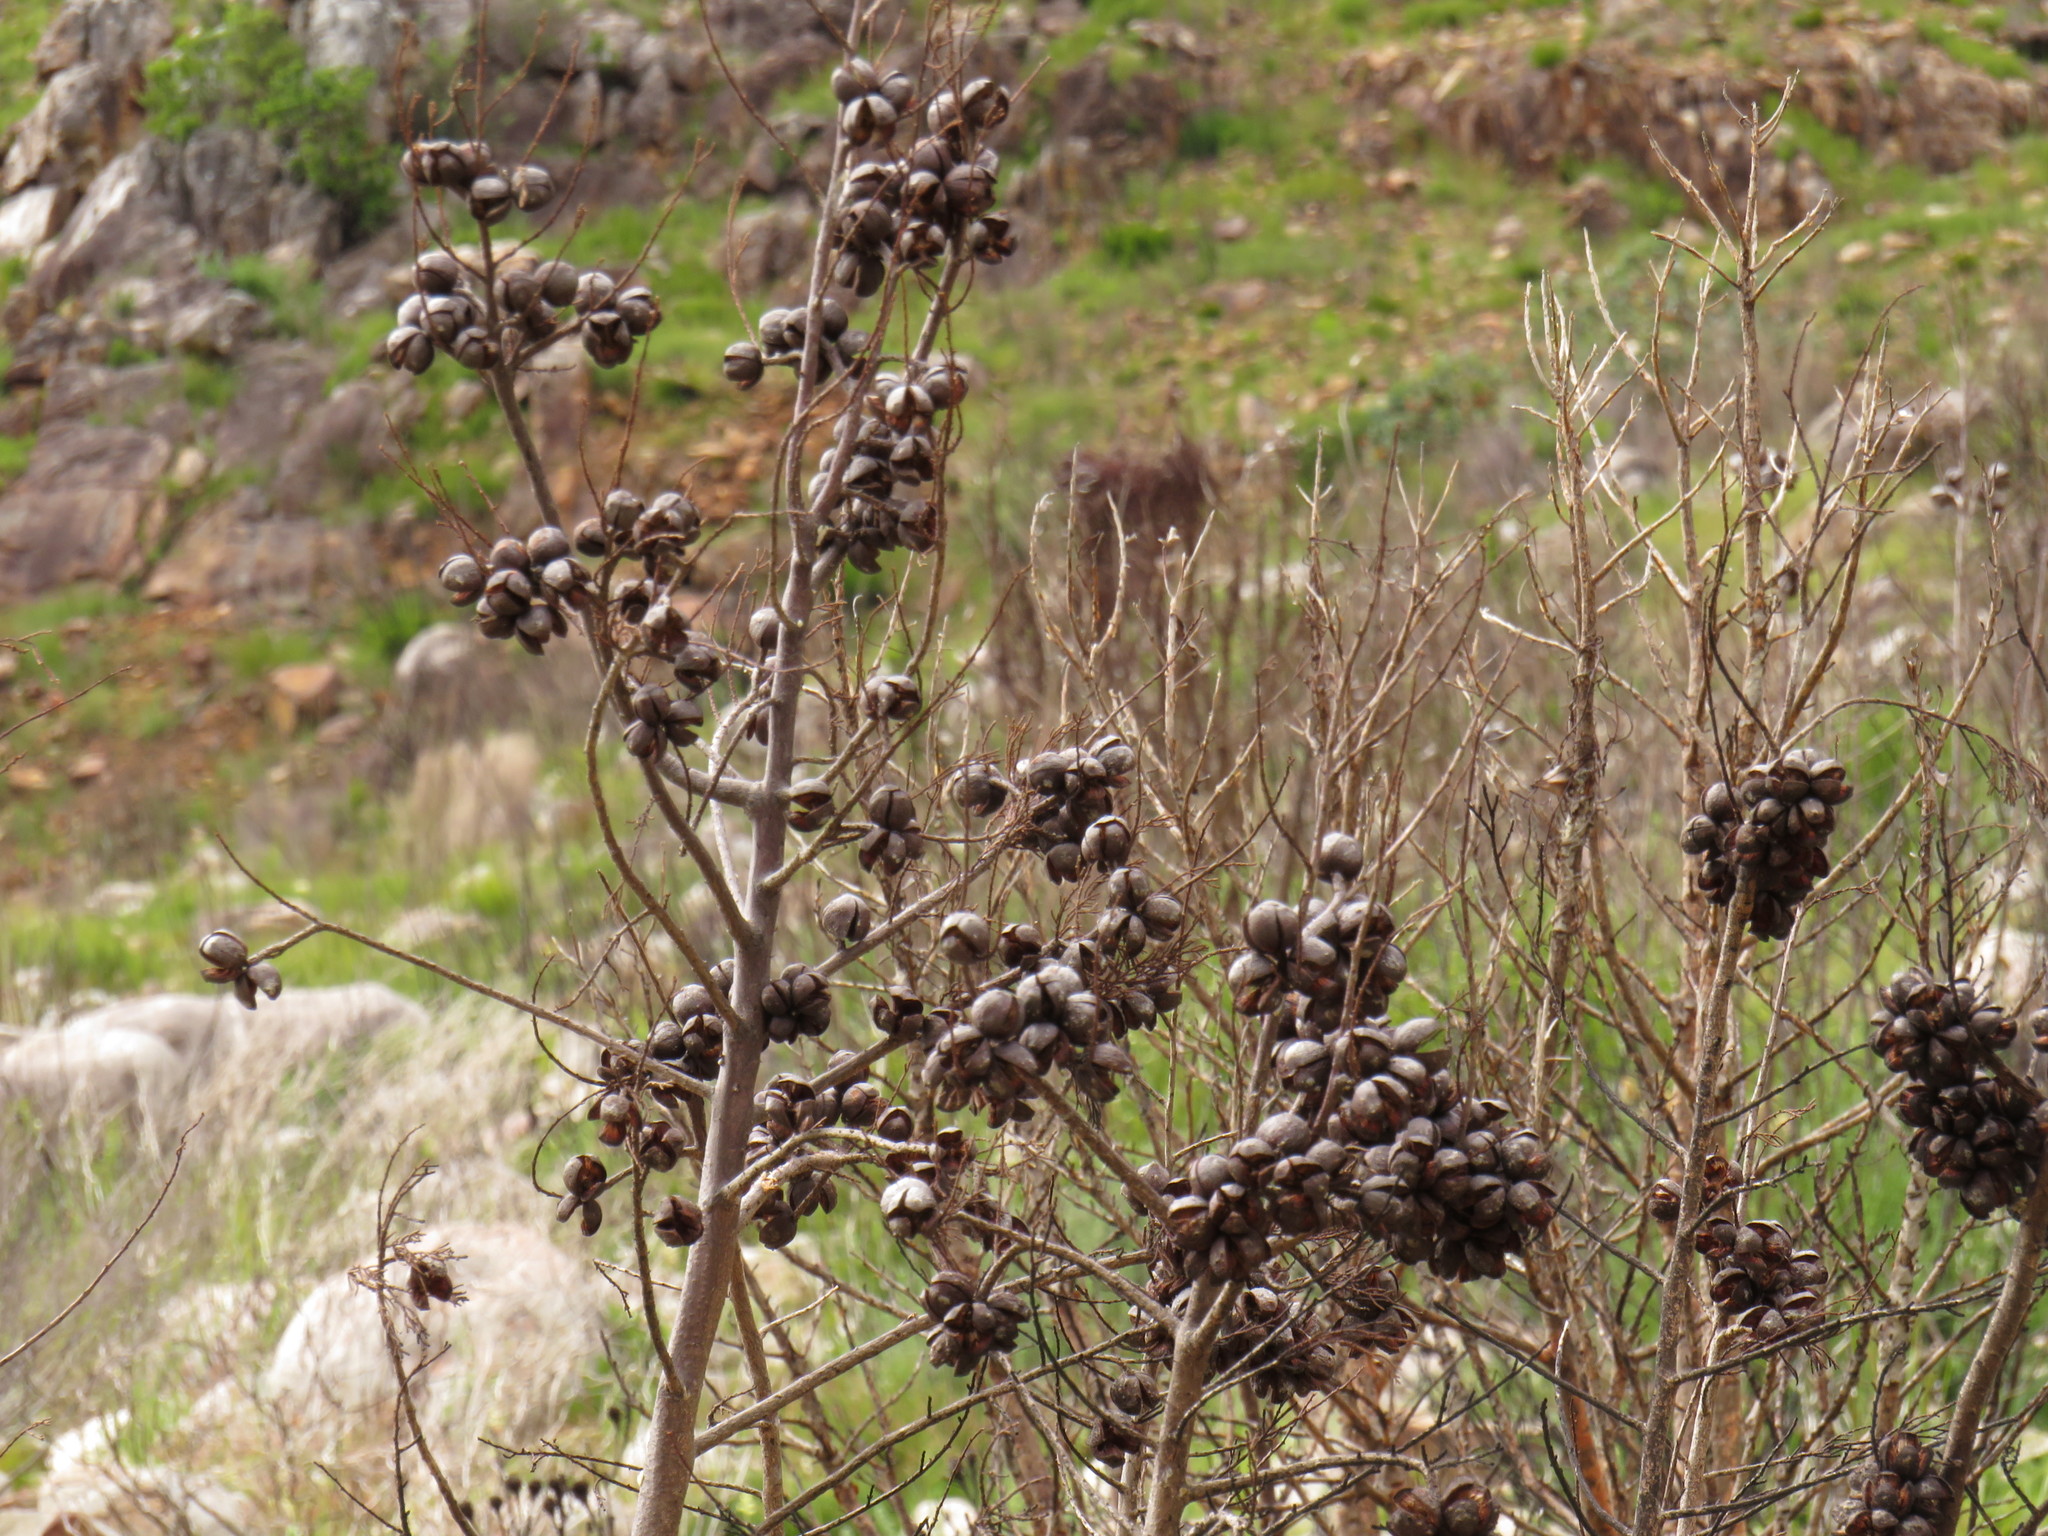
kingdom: Plantae
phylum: Tracheophyta
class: Pinopsida
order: Pinales
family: Cupressaceae
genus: Widdringtonia
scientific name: Widdringtonia nodiflora
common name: Cape cypress
